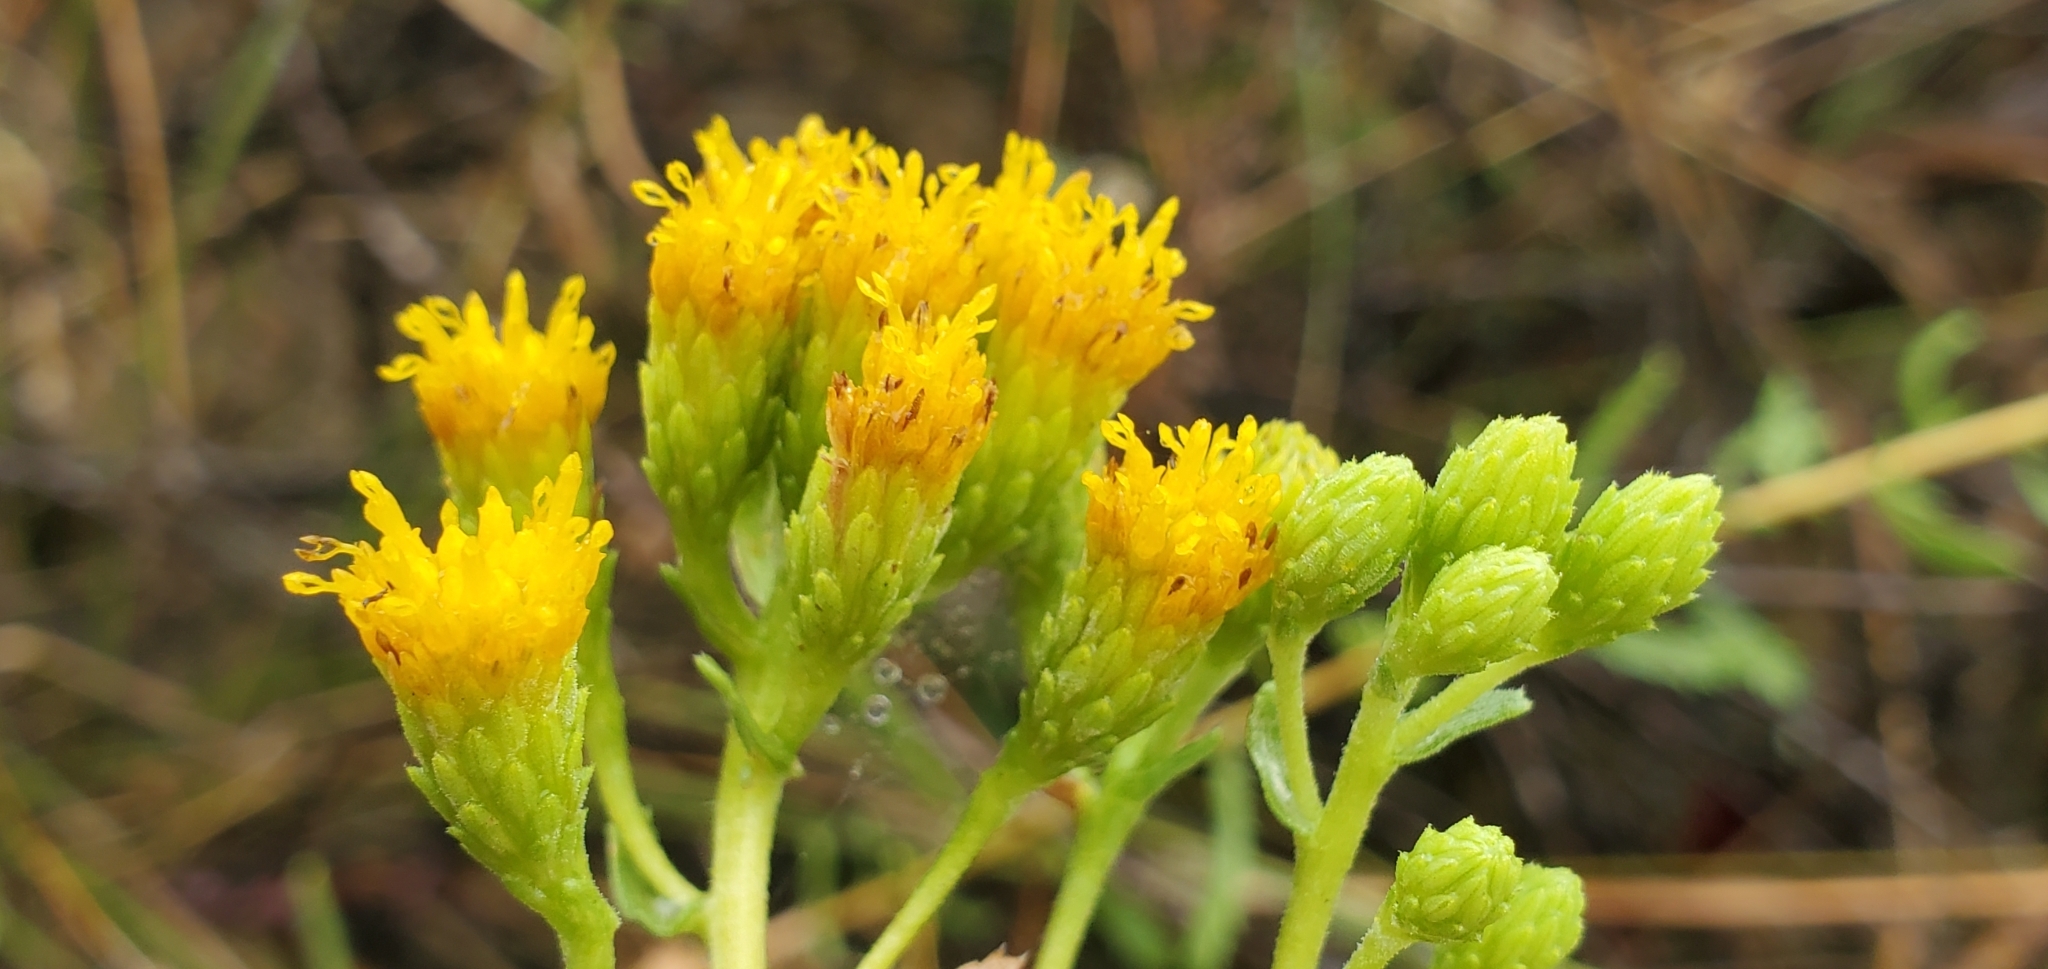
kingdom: Plantae
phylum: Tracheophyta
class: Magnoliopsida
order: Asterales
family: Asteraceae
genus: Isocoma
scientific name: Isocoma menziesii
